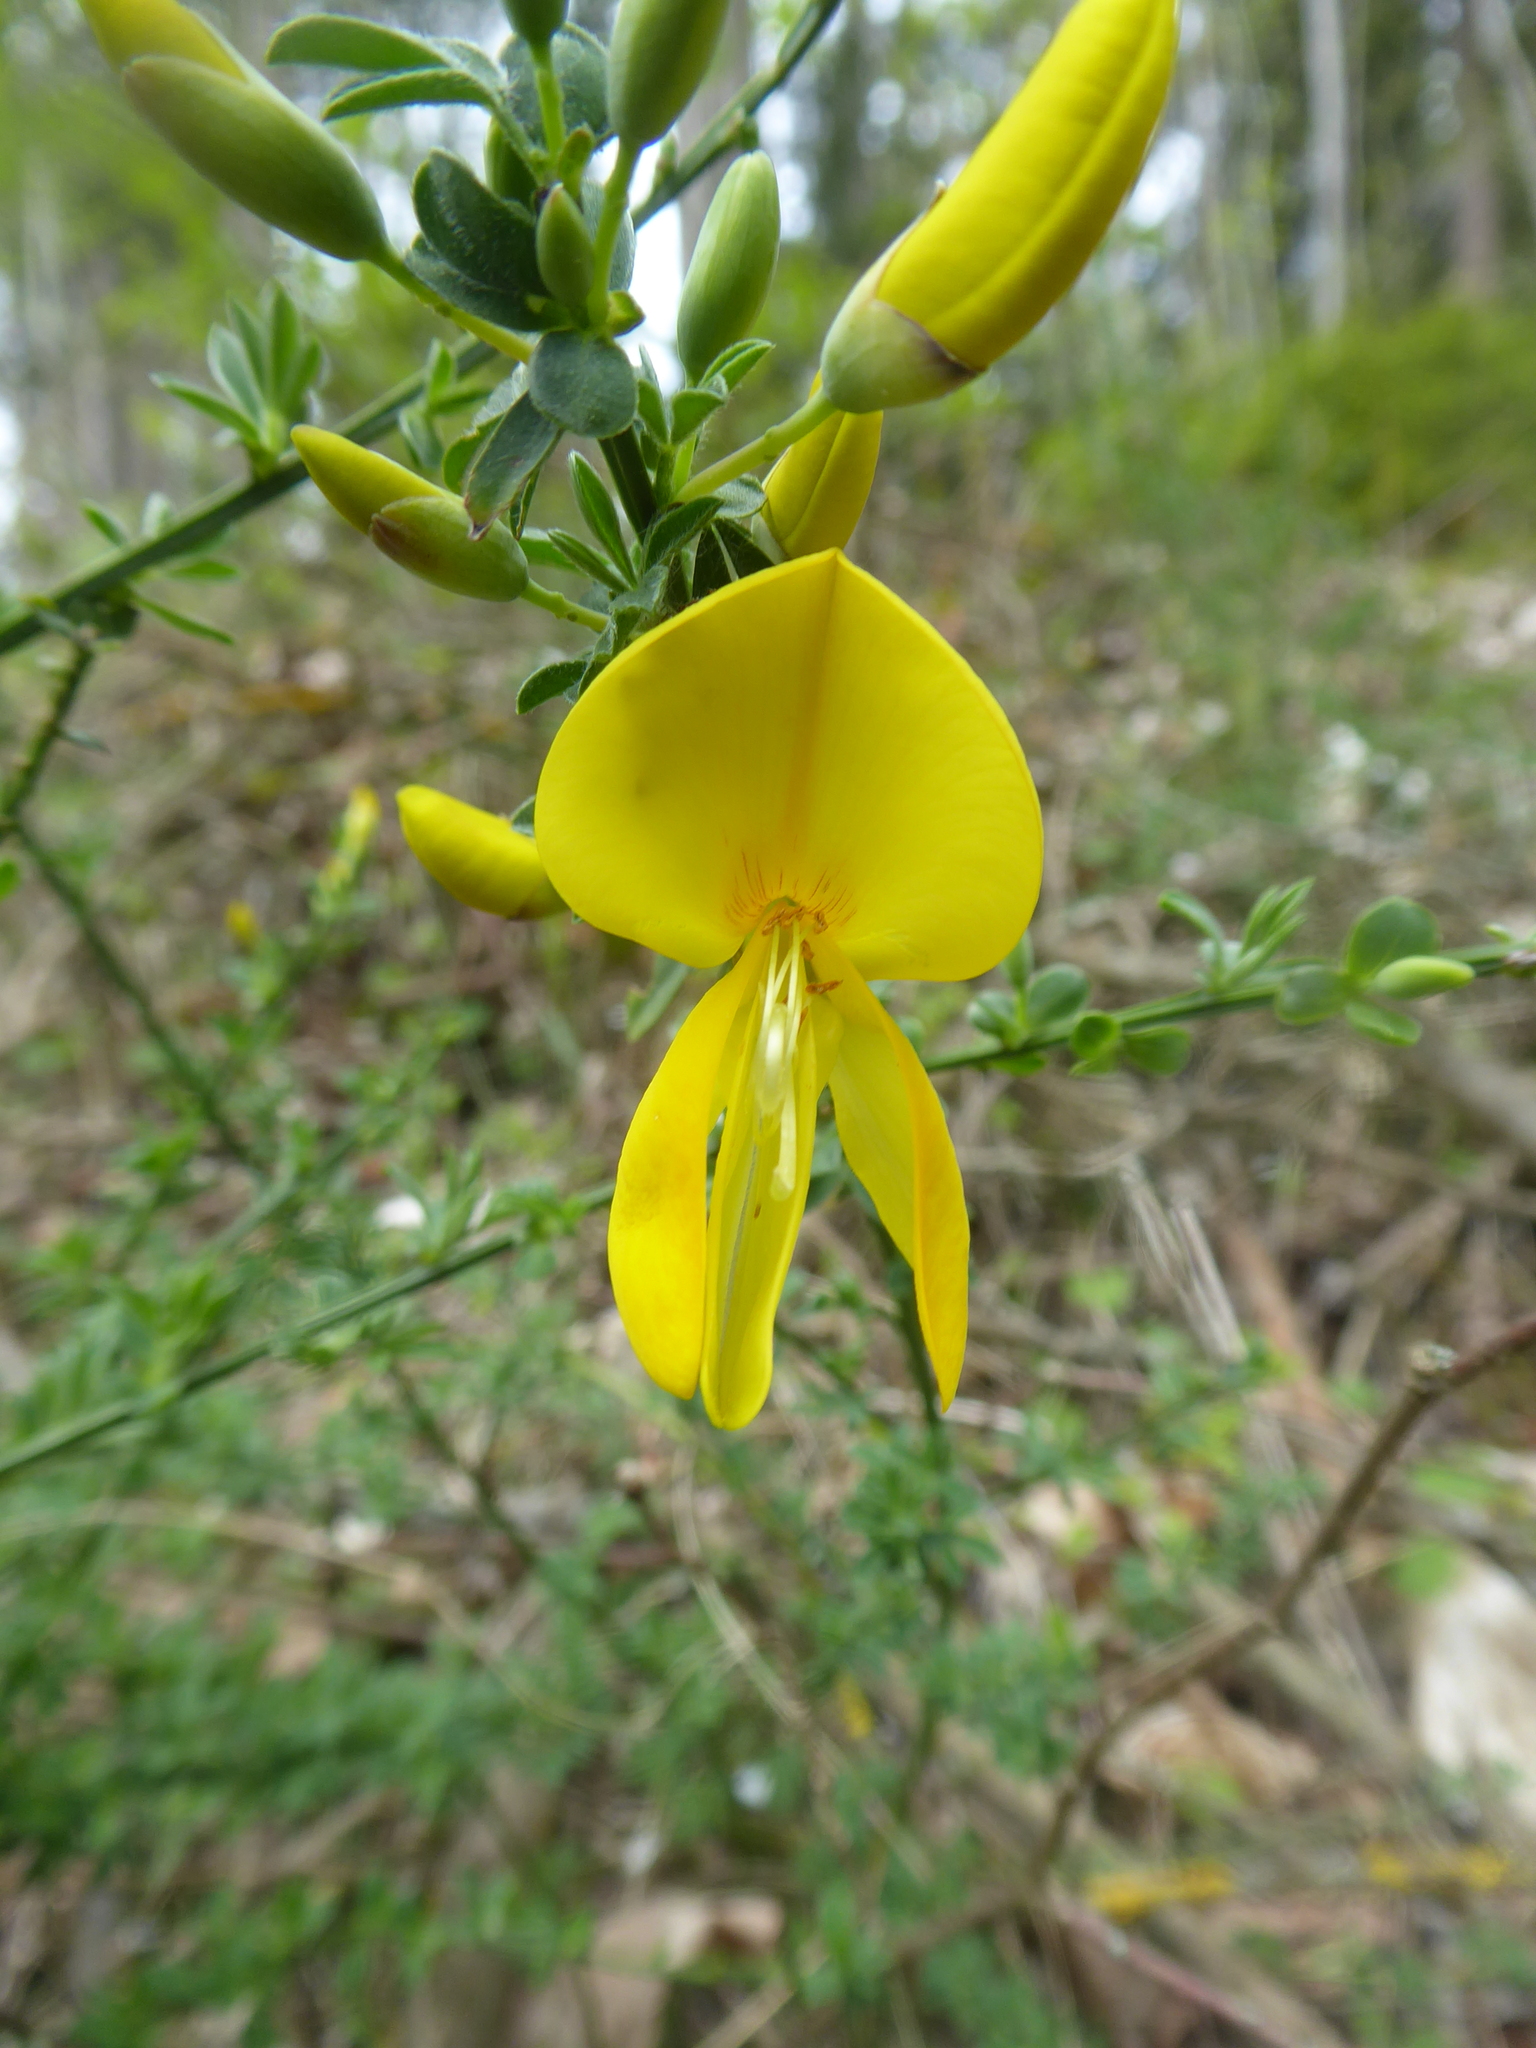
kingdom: Plantae
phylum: Tracheophyta
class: Magnoliopsida
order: Fabales
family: Fabaceae
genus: Cytisus
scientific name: Cytisus scoparius
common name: Scotch broom
